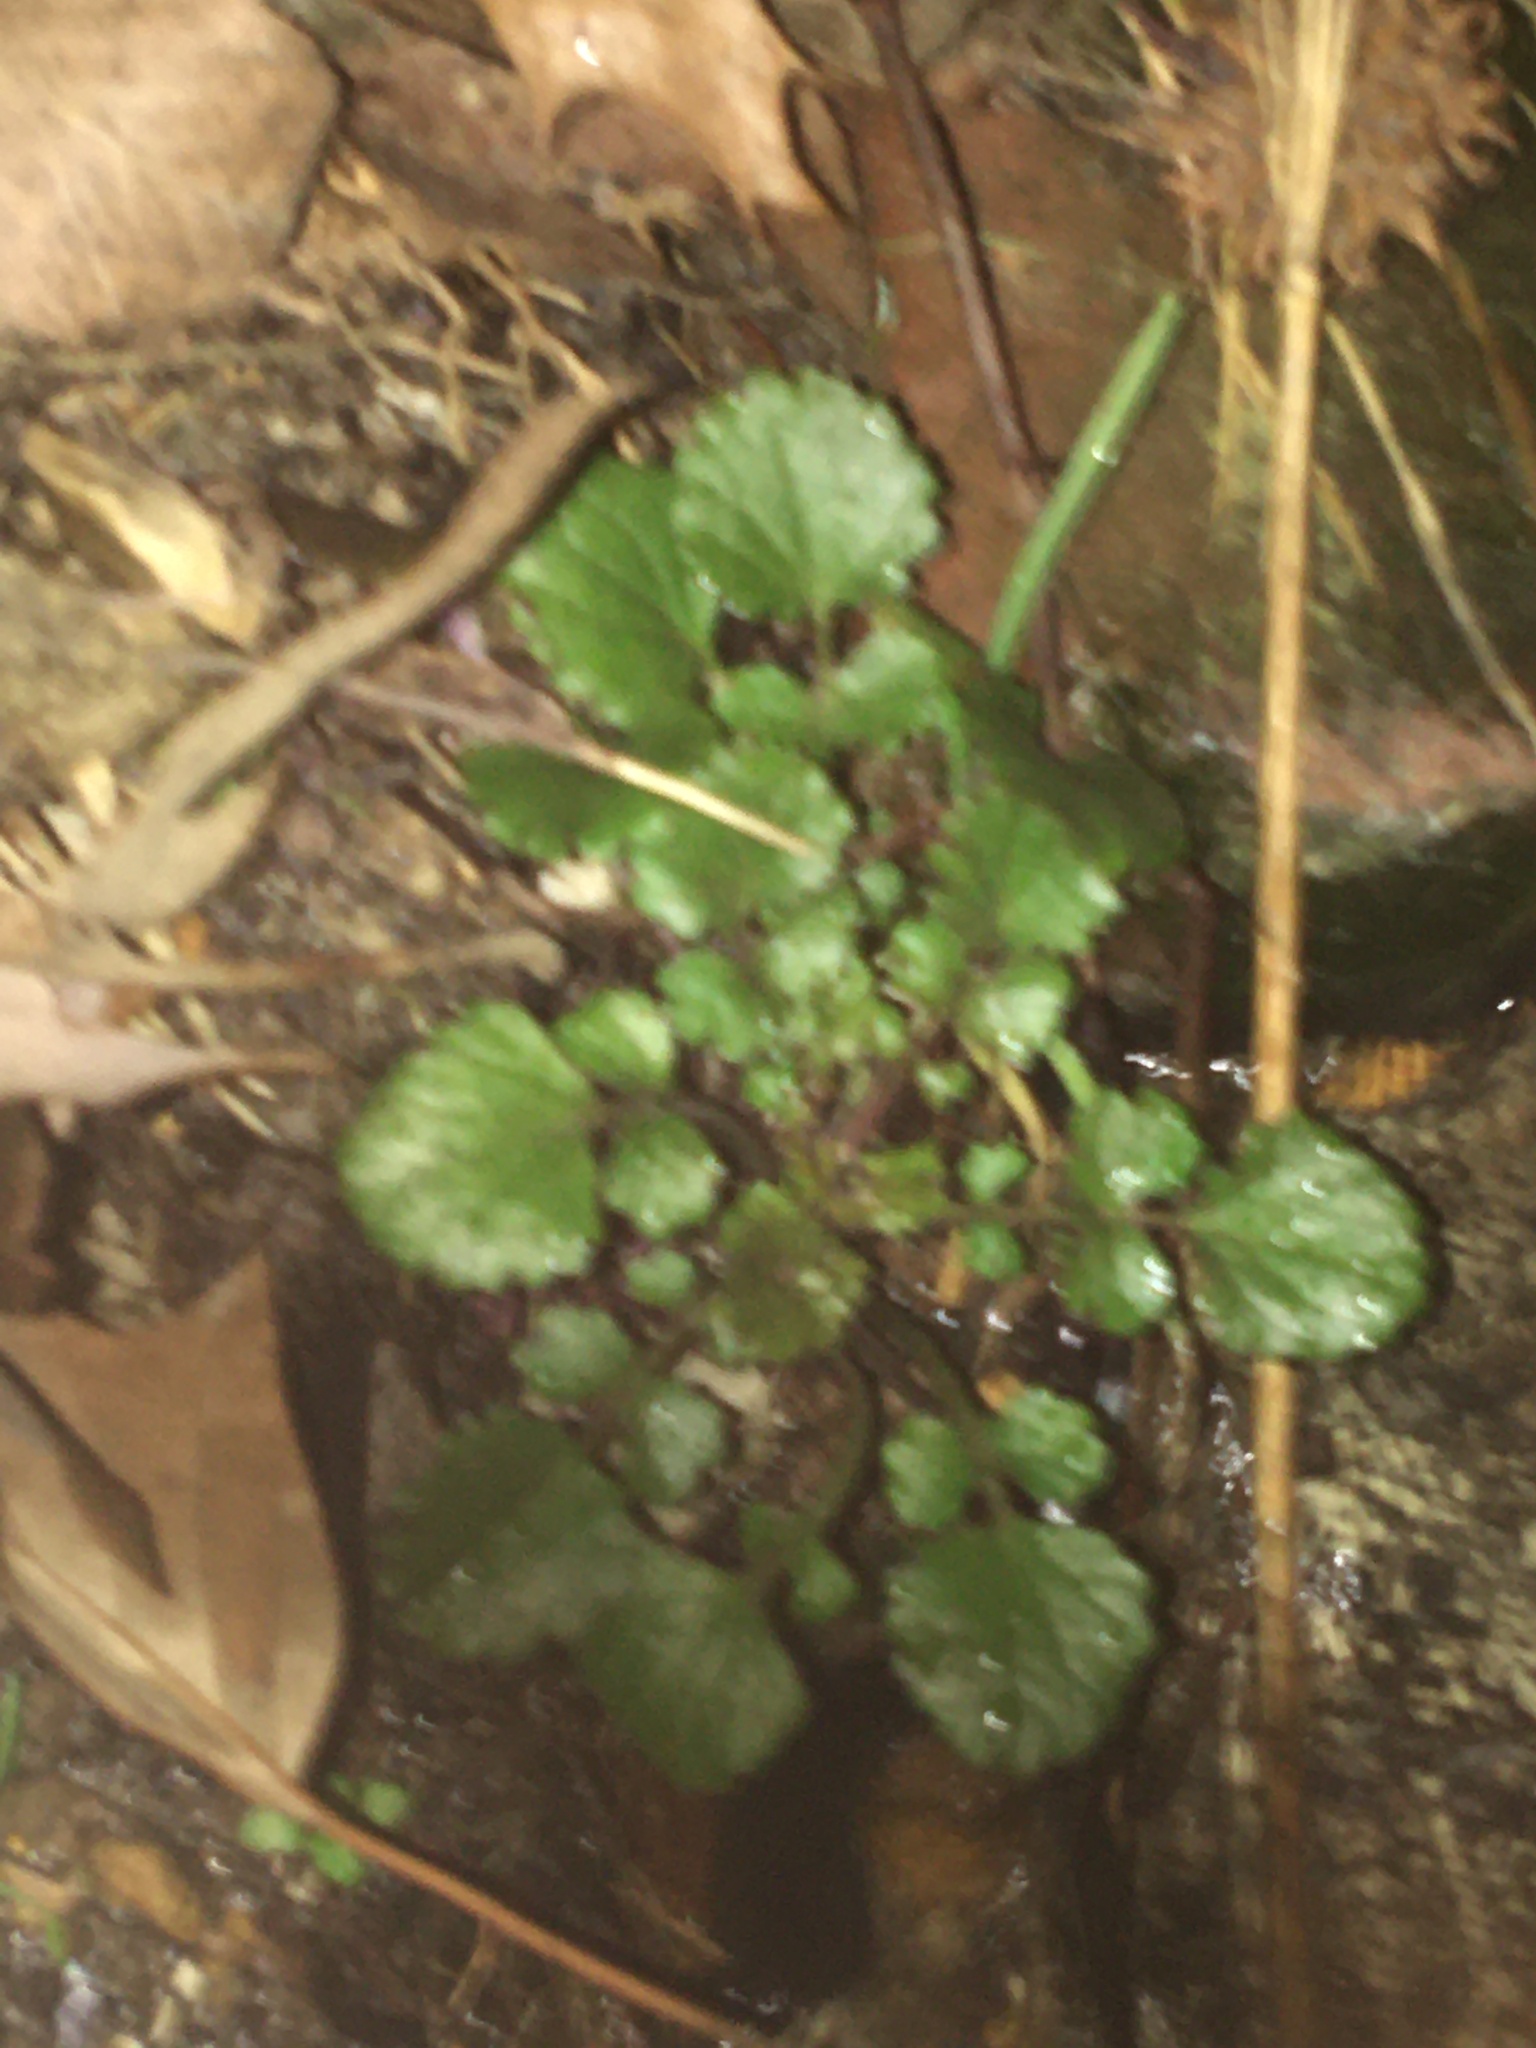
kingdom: Plantae
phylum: Tracheophyta
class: Magnoliopsida
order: Asterales
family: Asteraceae
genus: Packera
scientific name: Packera glabella
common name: Butterweed
